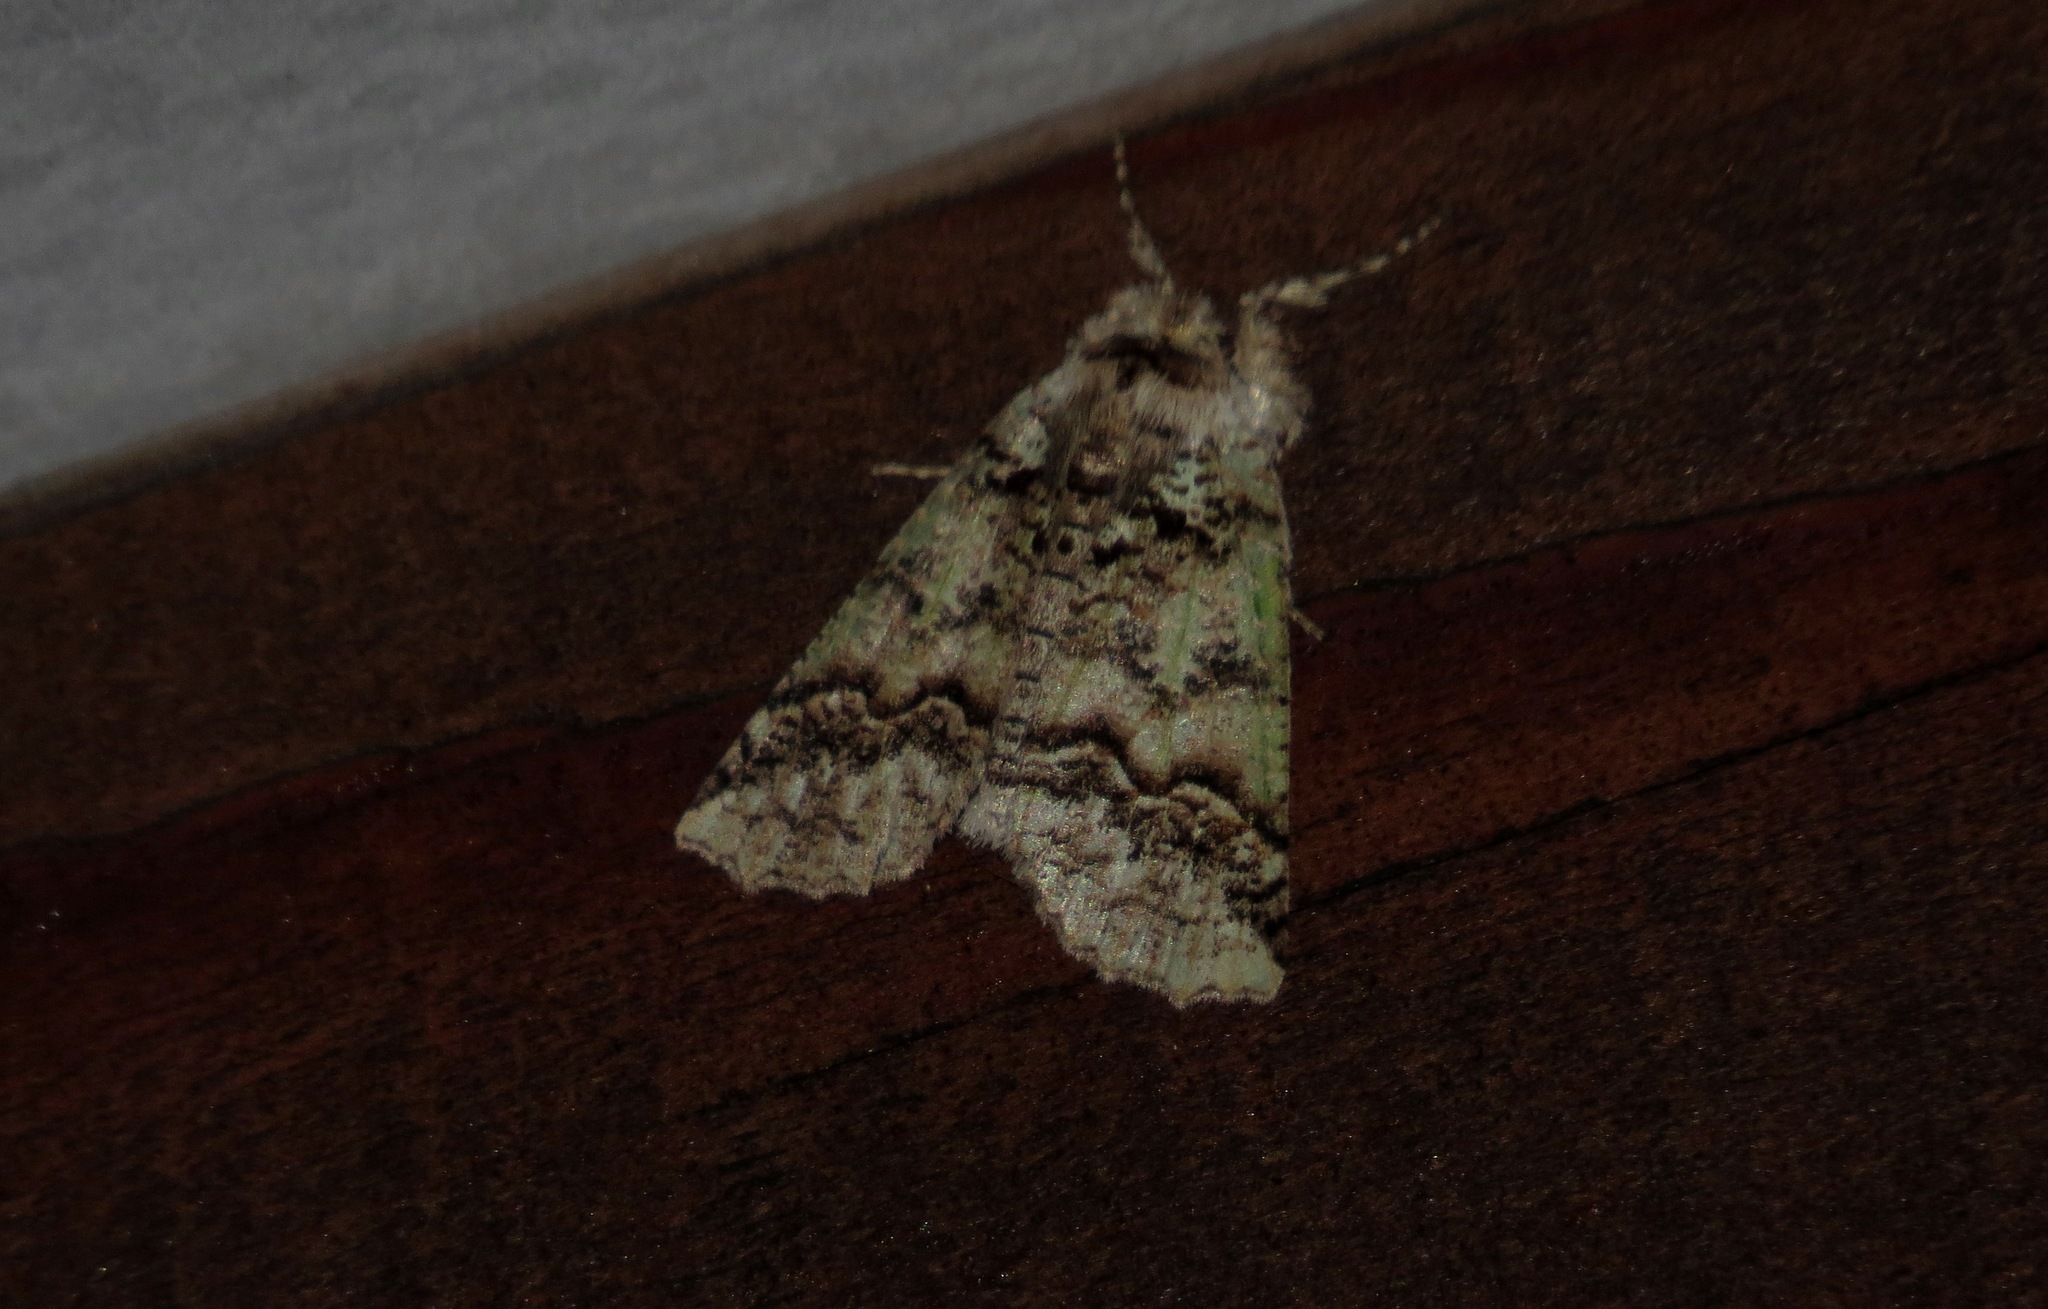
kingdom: Animalia
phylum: Arthropoda
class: Insecta
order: Lepidoptera
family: Geometridae
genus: Declana
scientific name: Declana floccosa
